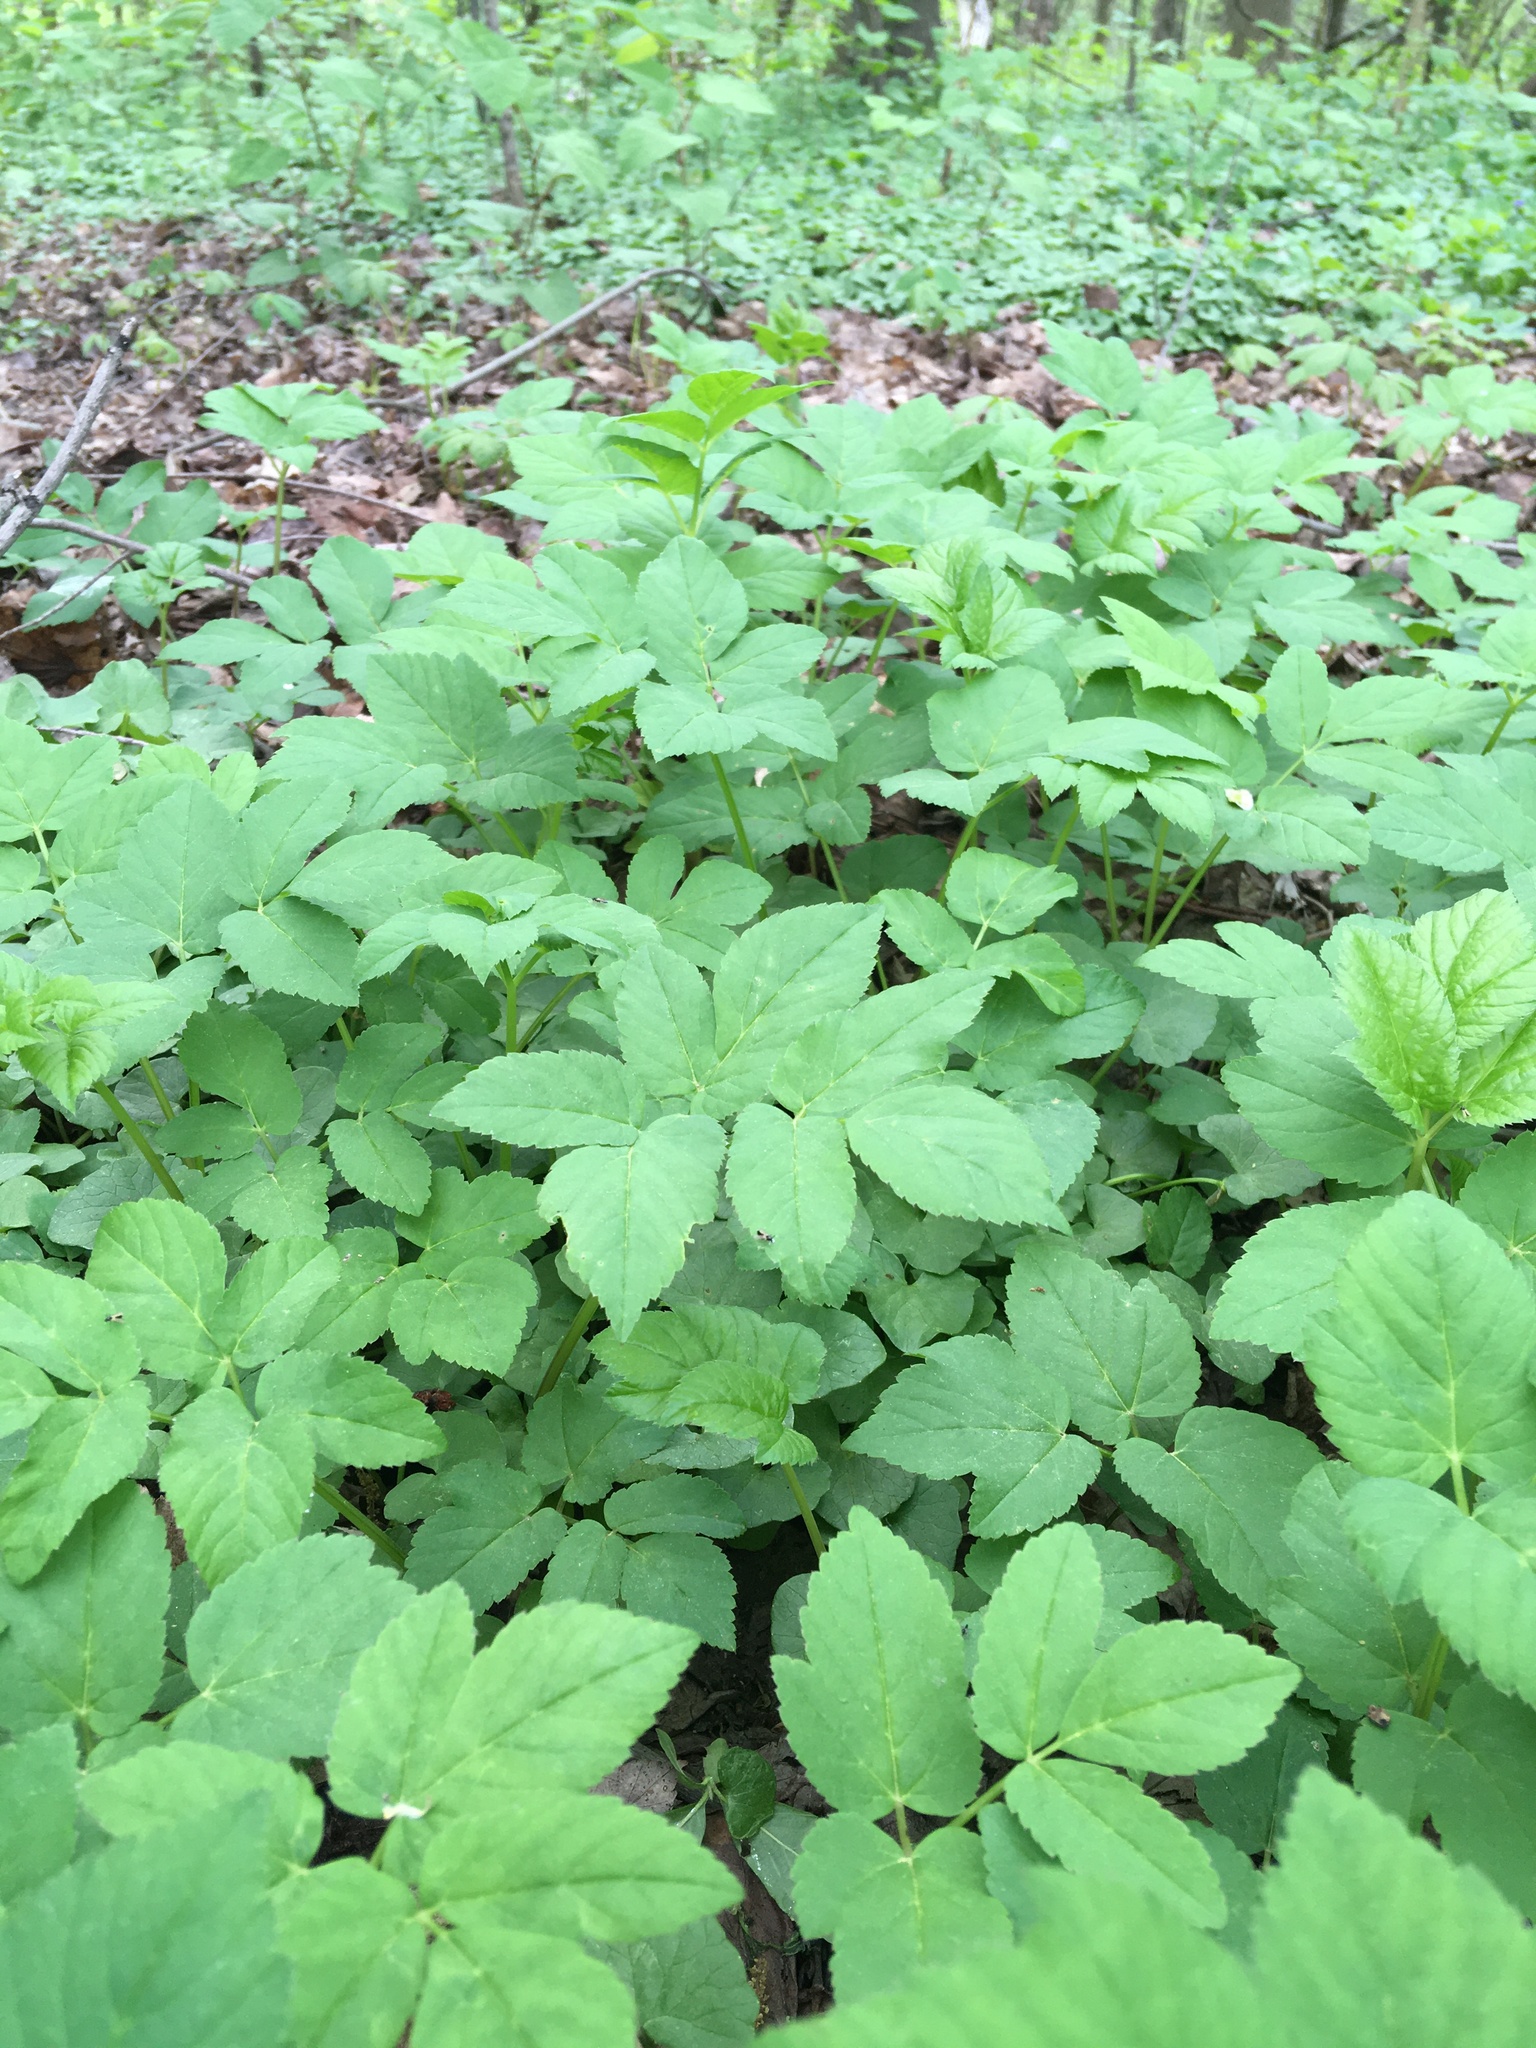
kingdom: Plantae
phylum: Tracheophyta
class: Magnoliopsida
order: Apiales
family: Apiaceae
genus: Aegopodium
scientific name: Aegopodium podagraria
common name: Ground-elder
